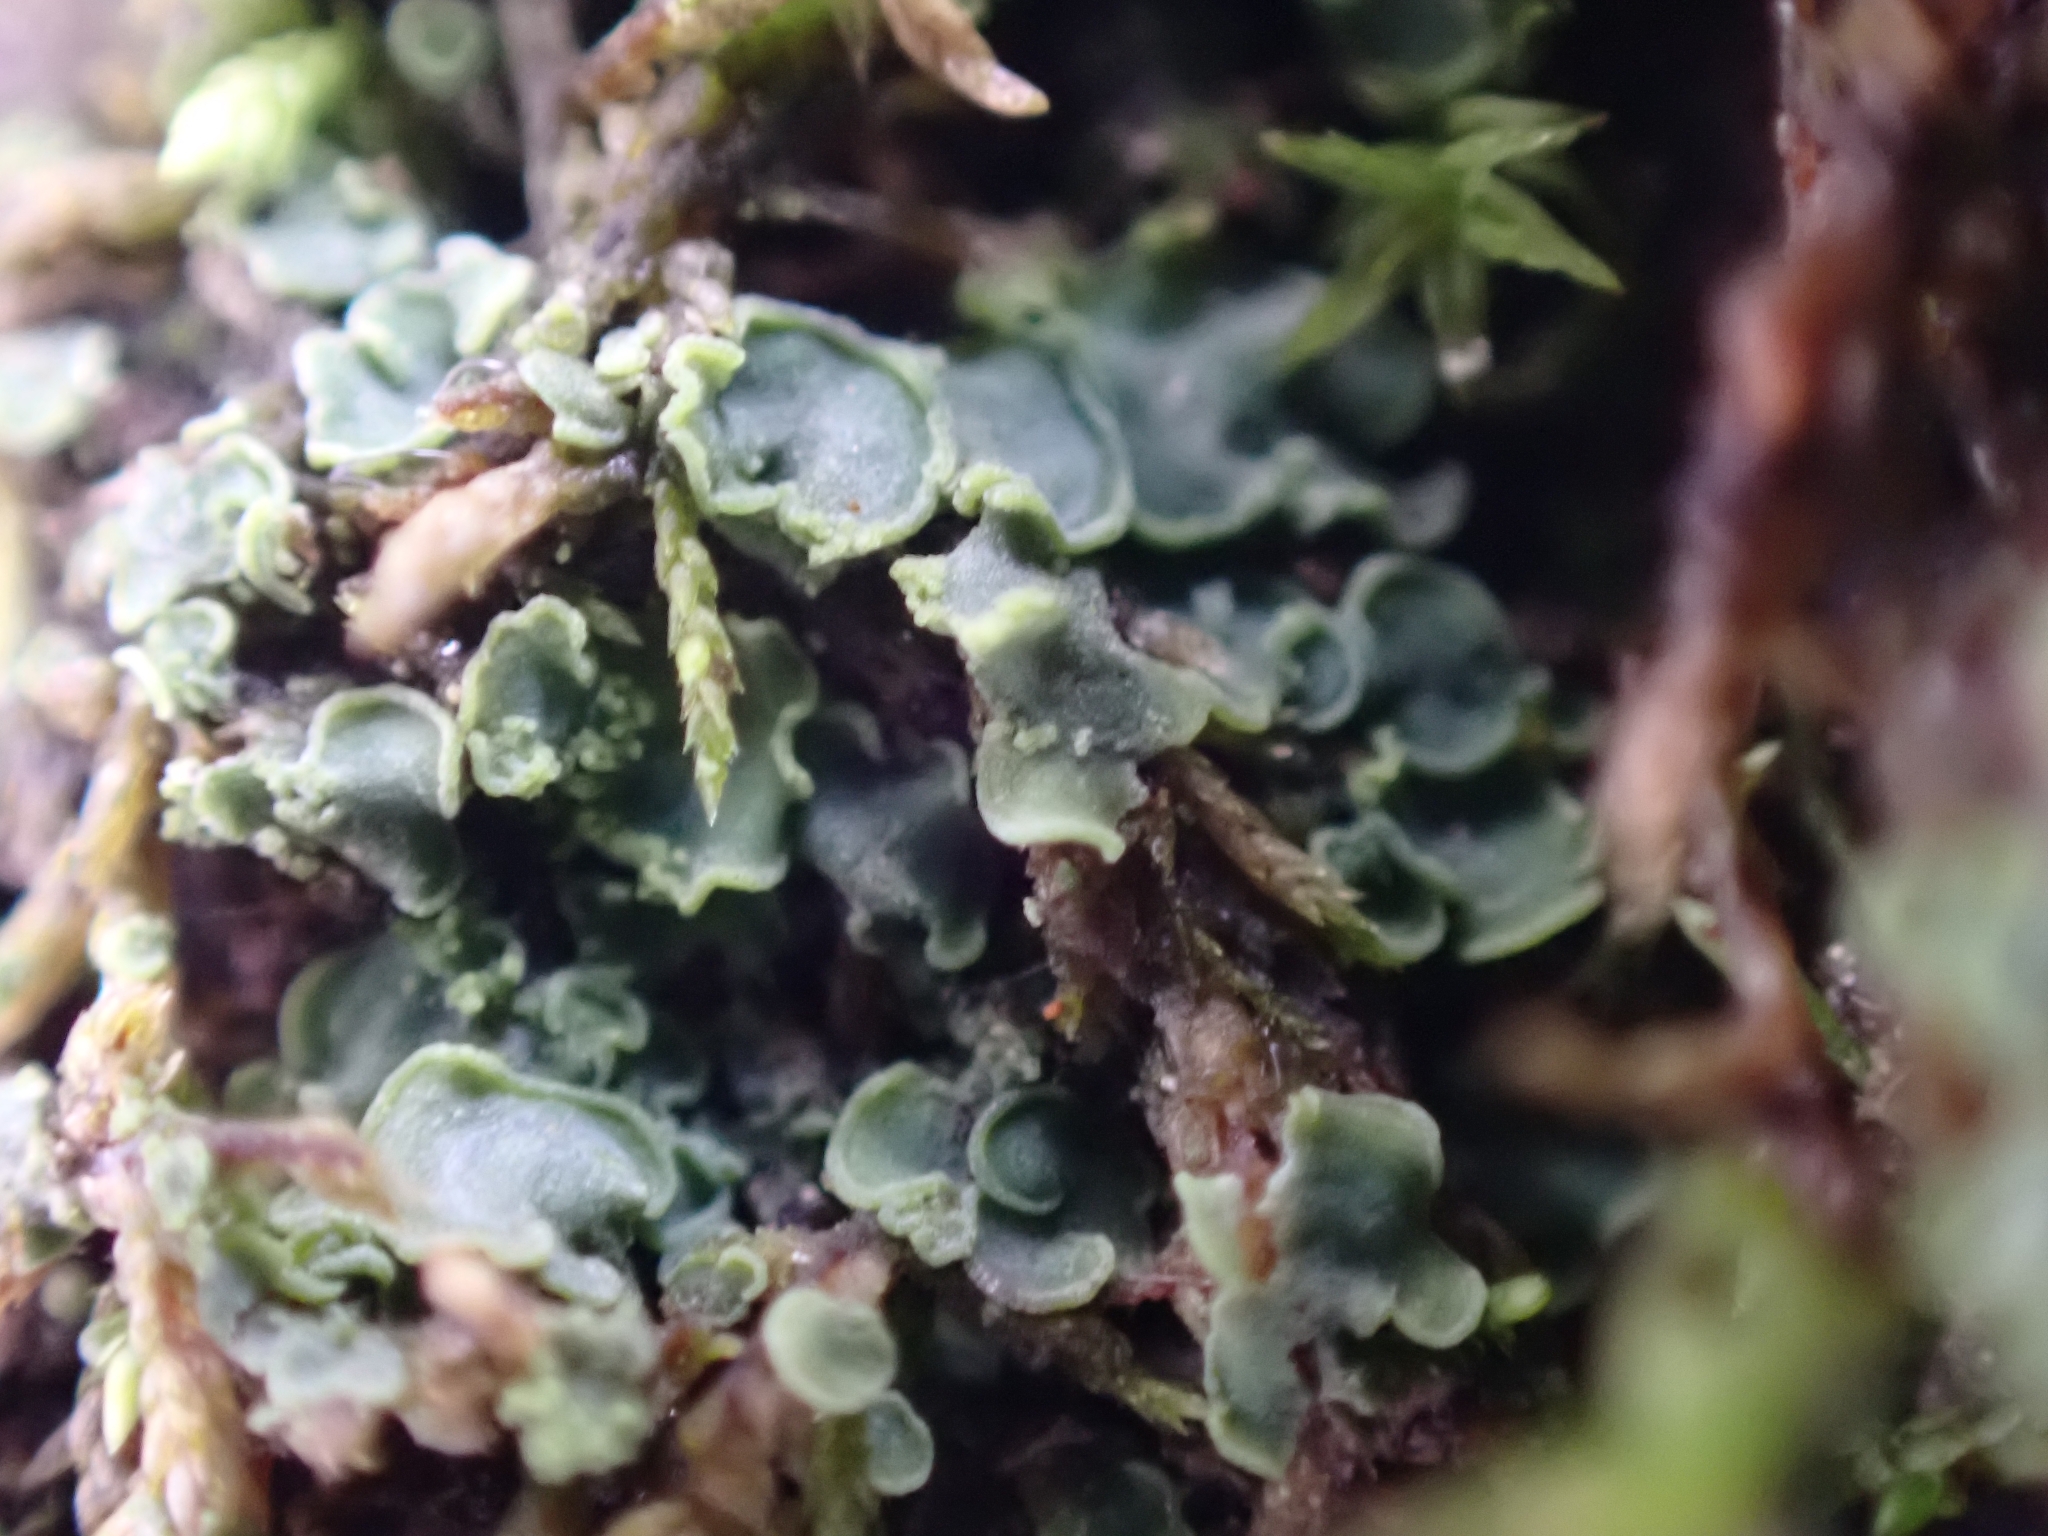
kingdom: Fungi
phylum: Ascomycota
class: Eurotiomycetes
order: Verrucariales
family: Verrucariaceae
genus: Normandina
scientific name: Normandina pulchella
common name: Elf ears lichen
